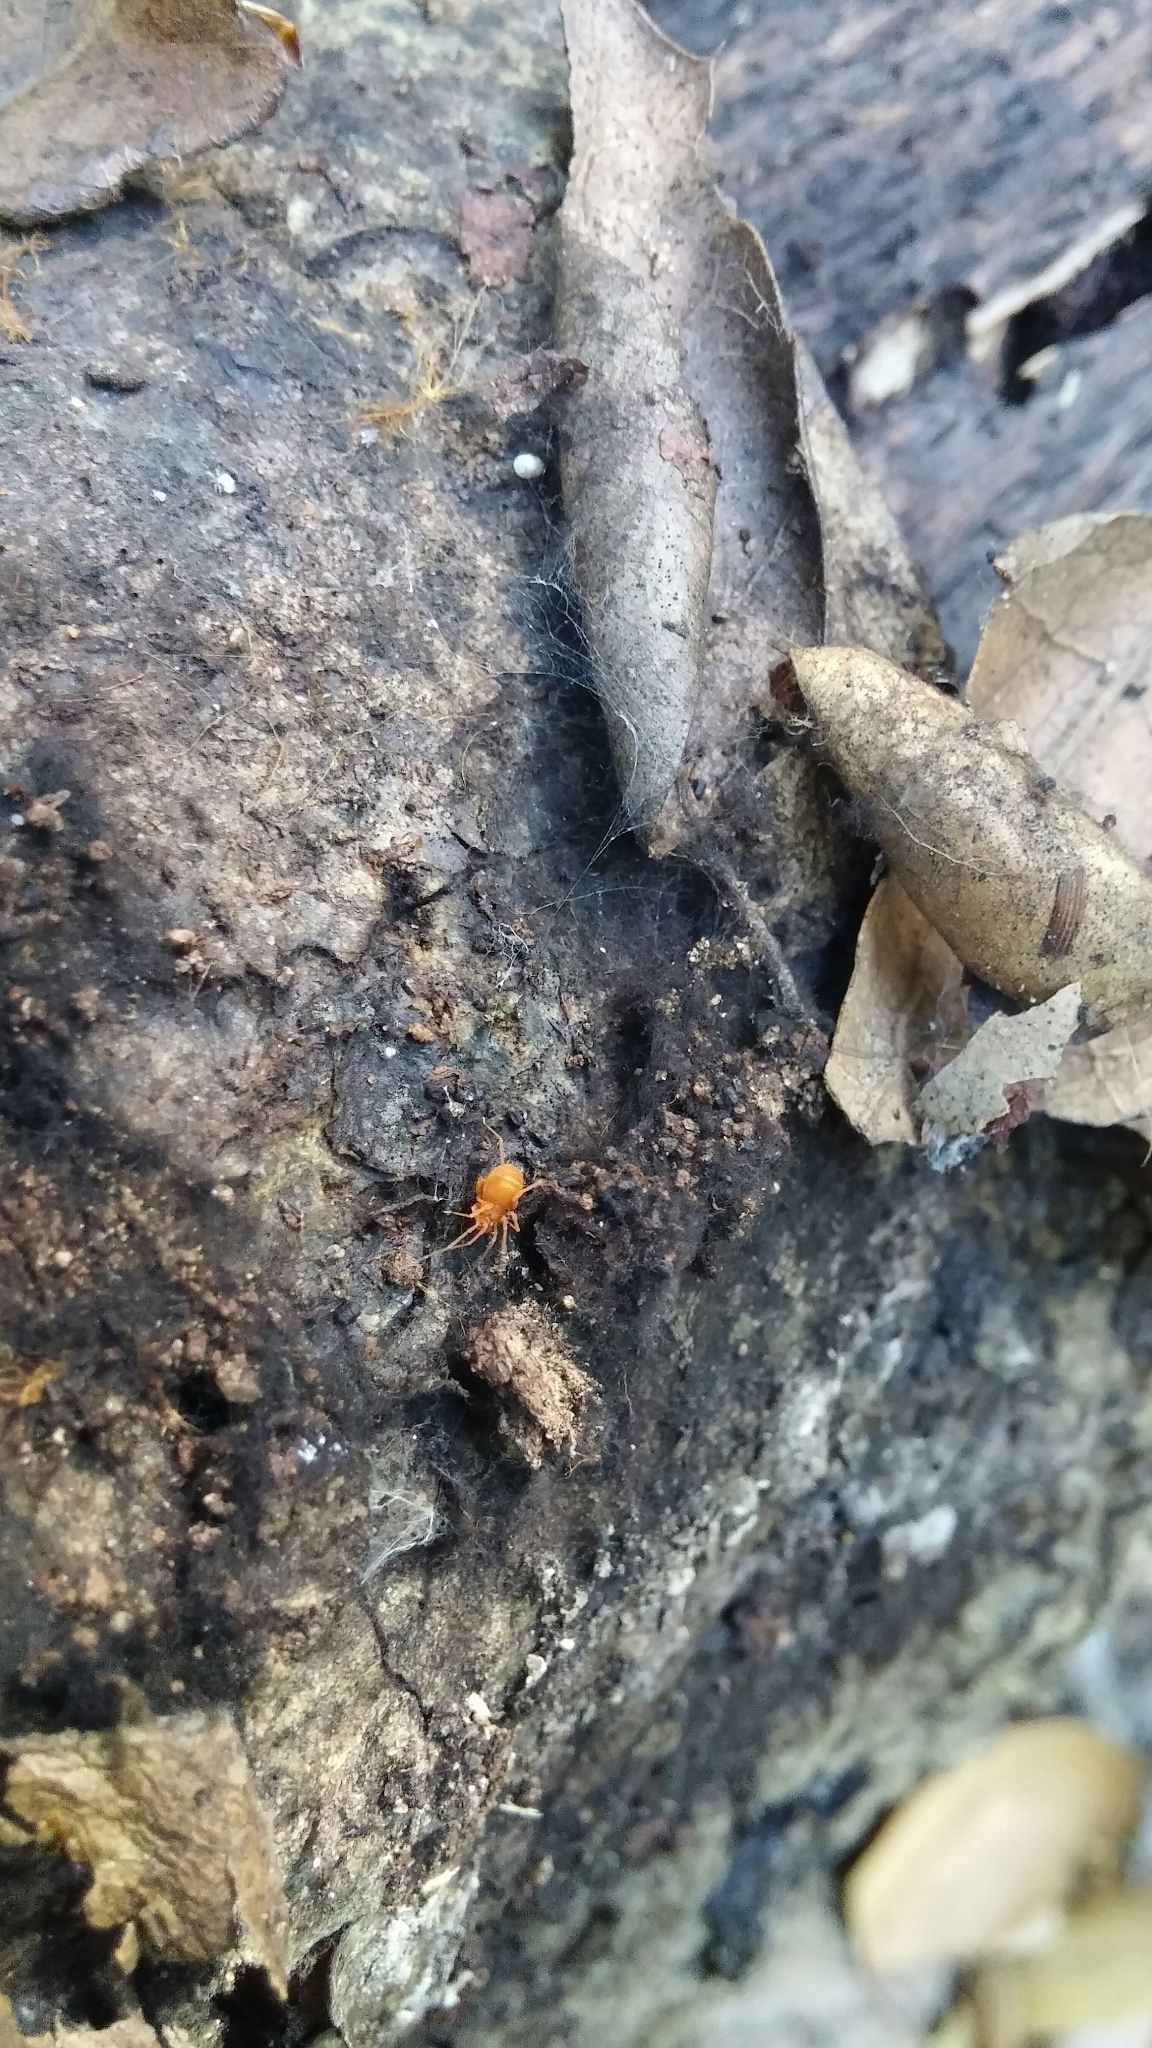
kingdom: Animalia
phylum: Arthropoda
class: Arachnida
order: Opiliones
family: Phalangodidae
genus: Sitalcina
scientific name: Sitalcina lobata
